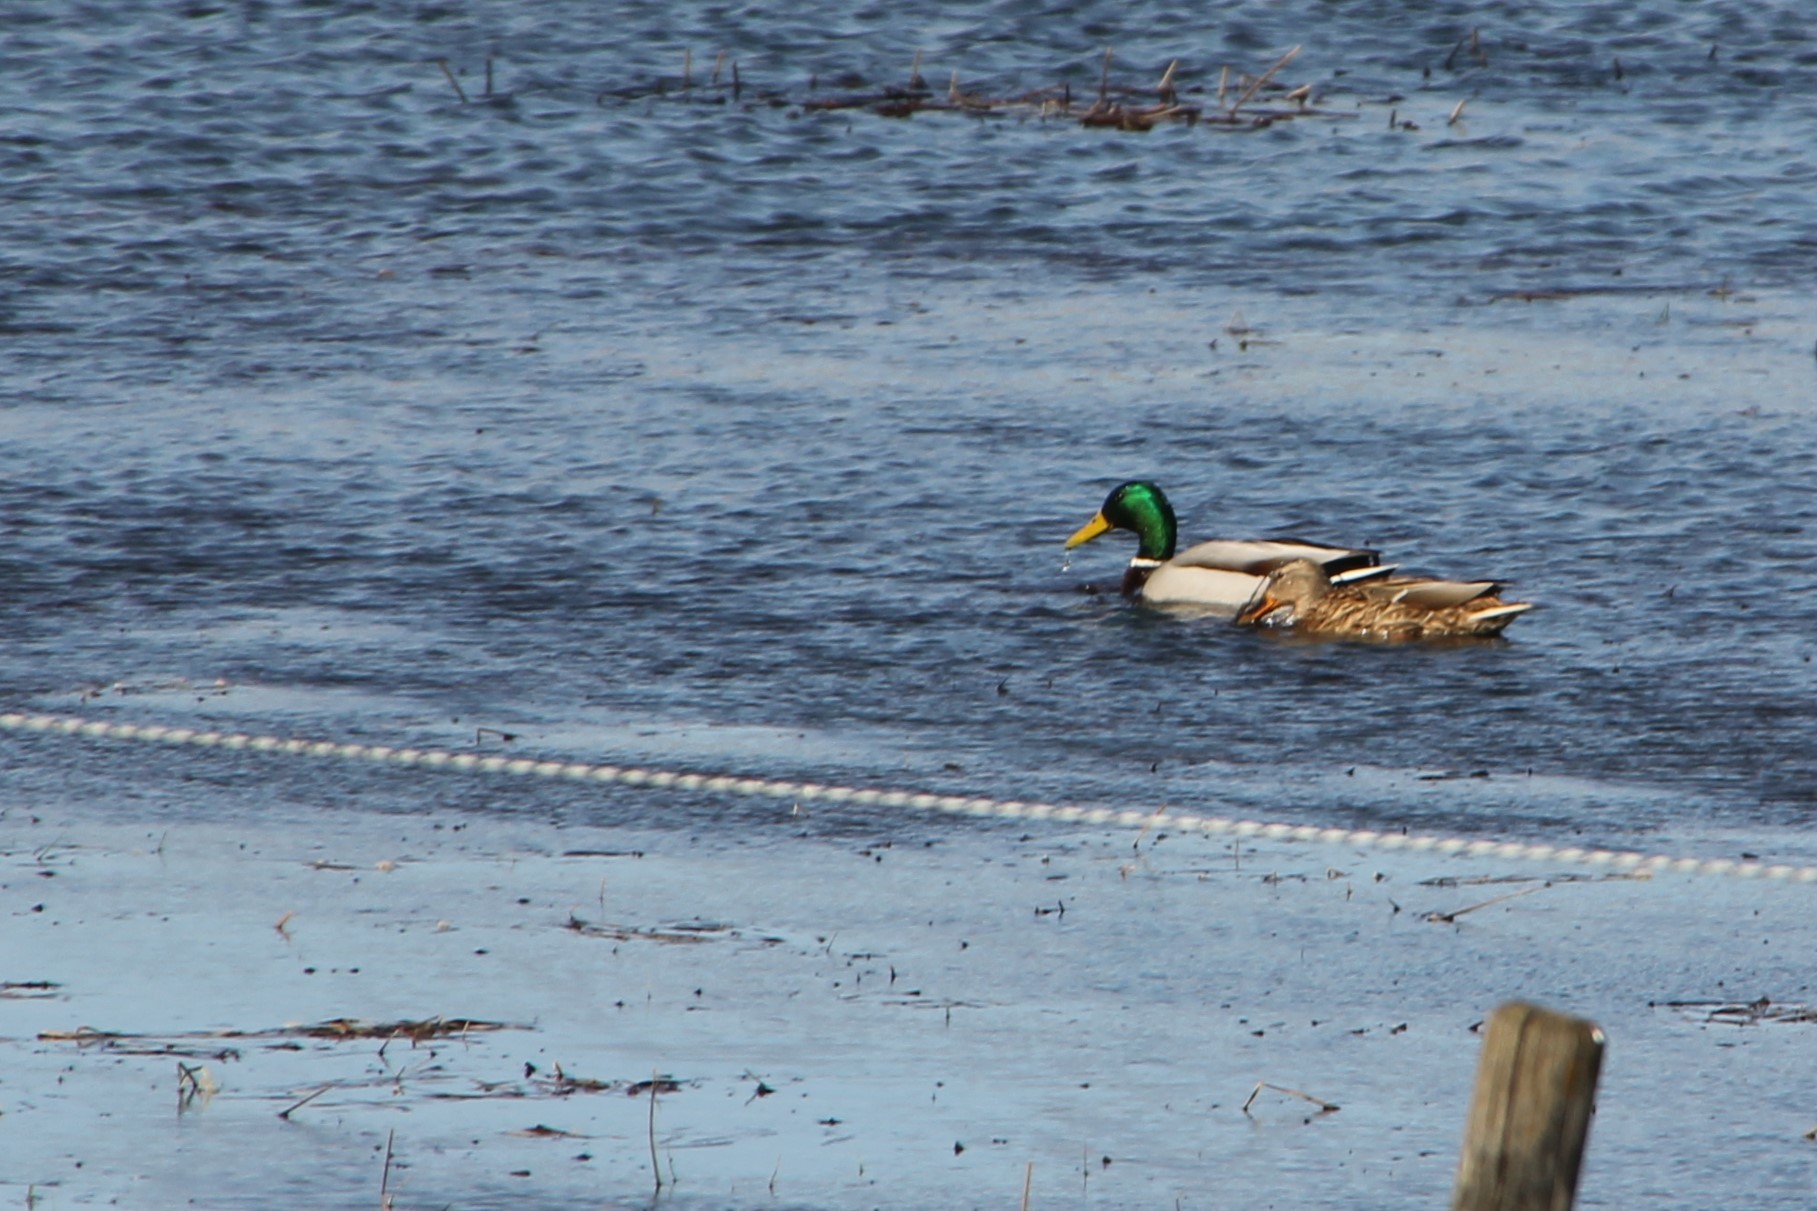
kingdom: Animalia
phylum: Chordata
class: Aves
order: Anseriformes
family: Anatidae
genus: Anas
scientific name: Anas platyrhynchos
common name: Mallard
